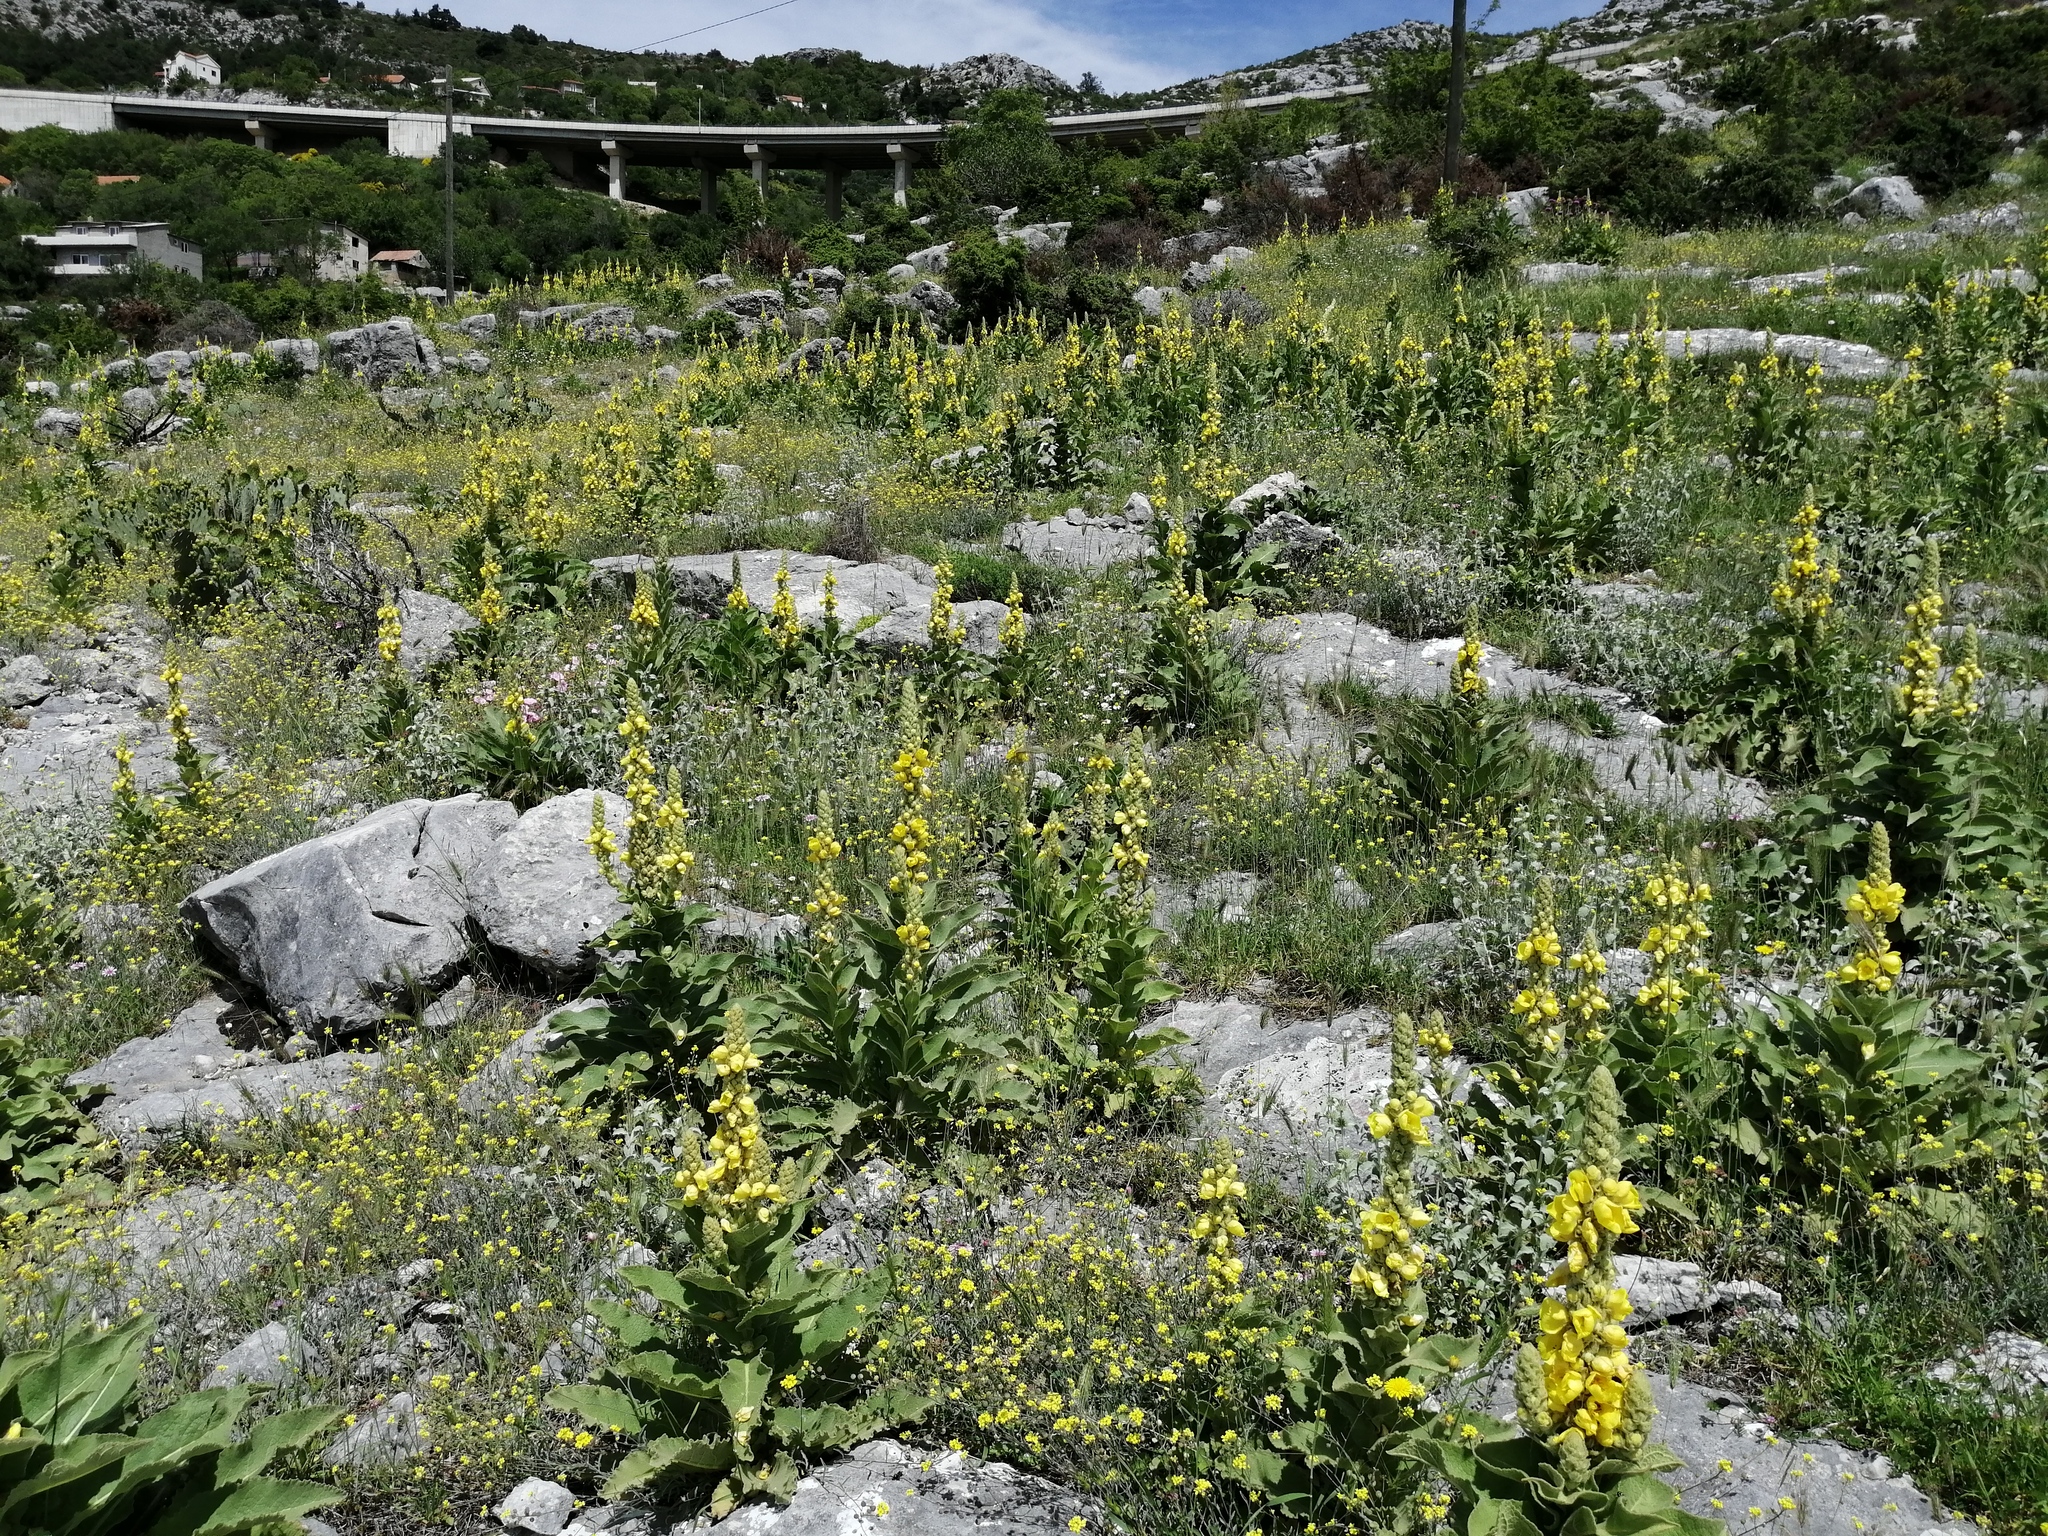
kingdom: Plantae
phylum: Tracheophyta
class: Magnoliopsida
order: Lamiales
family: Scrophulariaceae
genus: Verbascum
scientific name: Verbascum phlomoides
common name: Orange mullein
